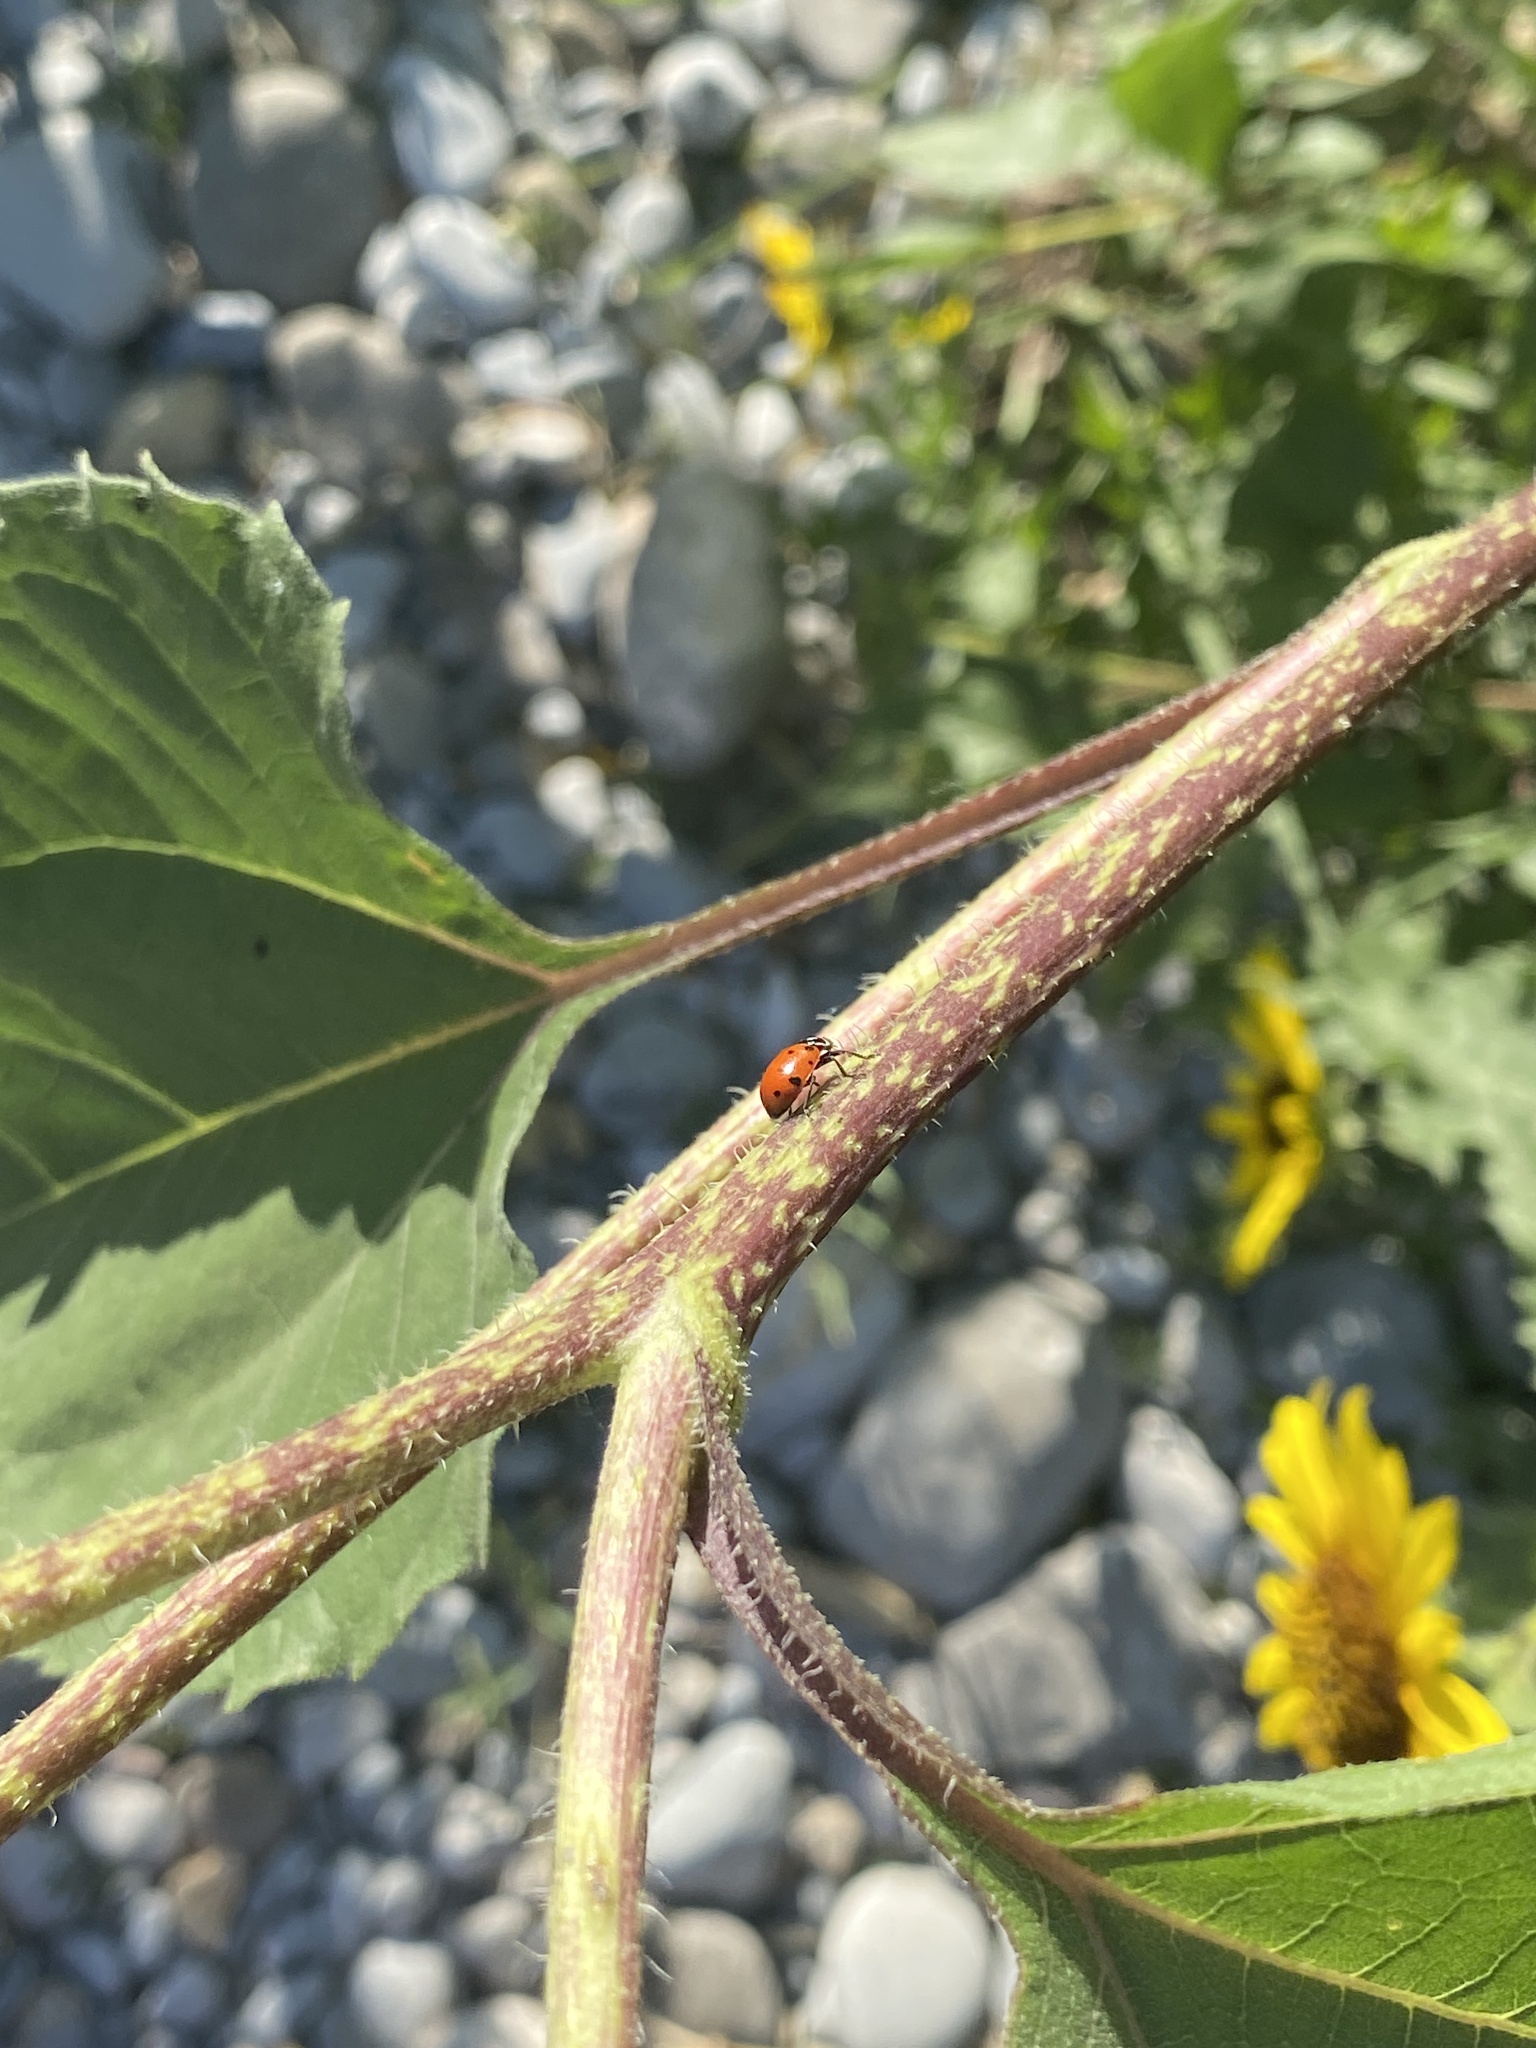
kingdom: Animalia
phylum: Arthropoda
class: Insecta
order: Coleoptera
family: Coccinellidae
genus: Hippodamia
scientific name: Hippodamia convergens
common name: Convergent lady beetle
